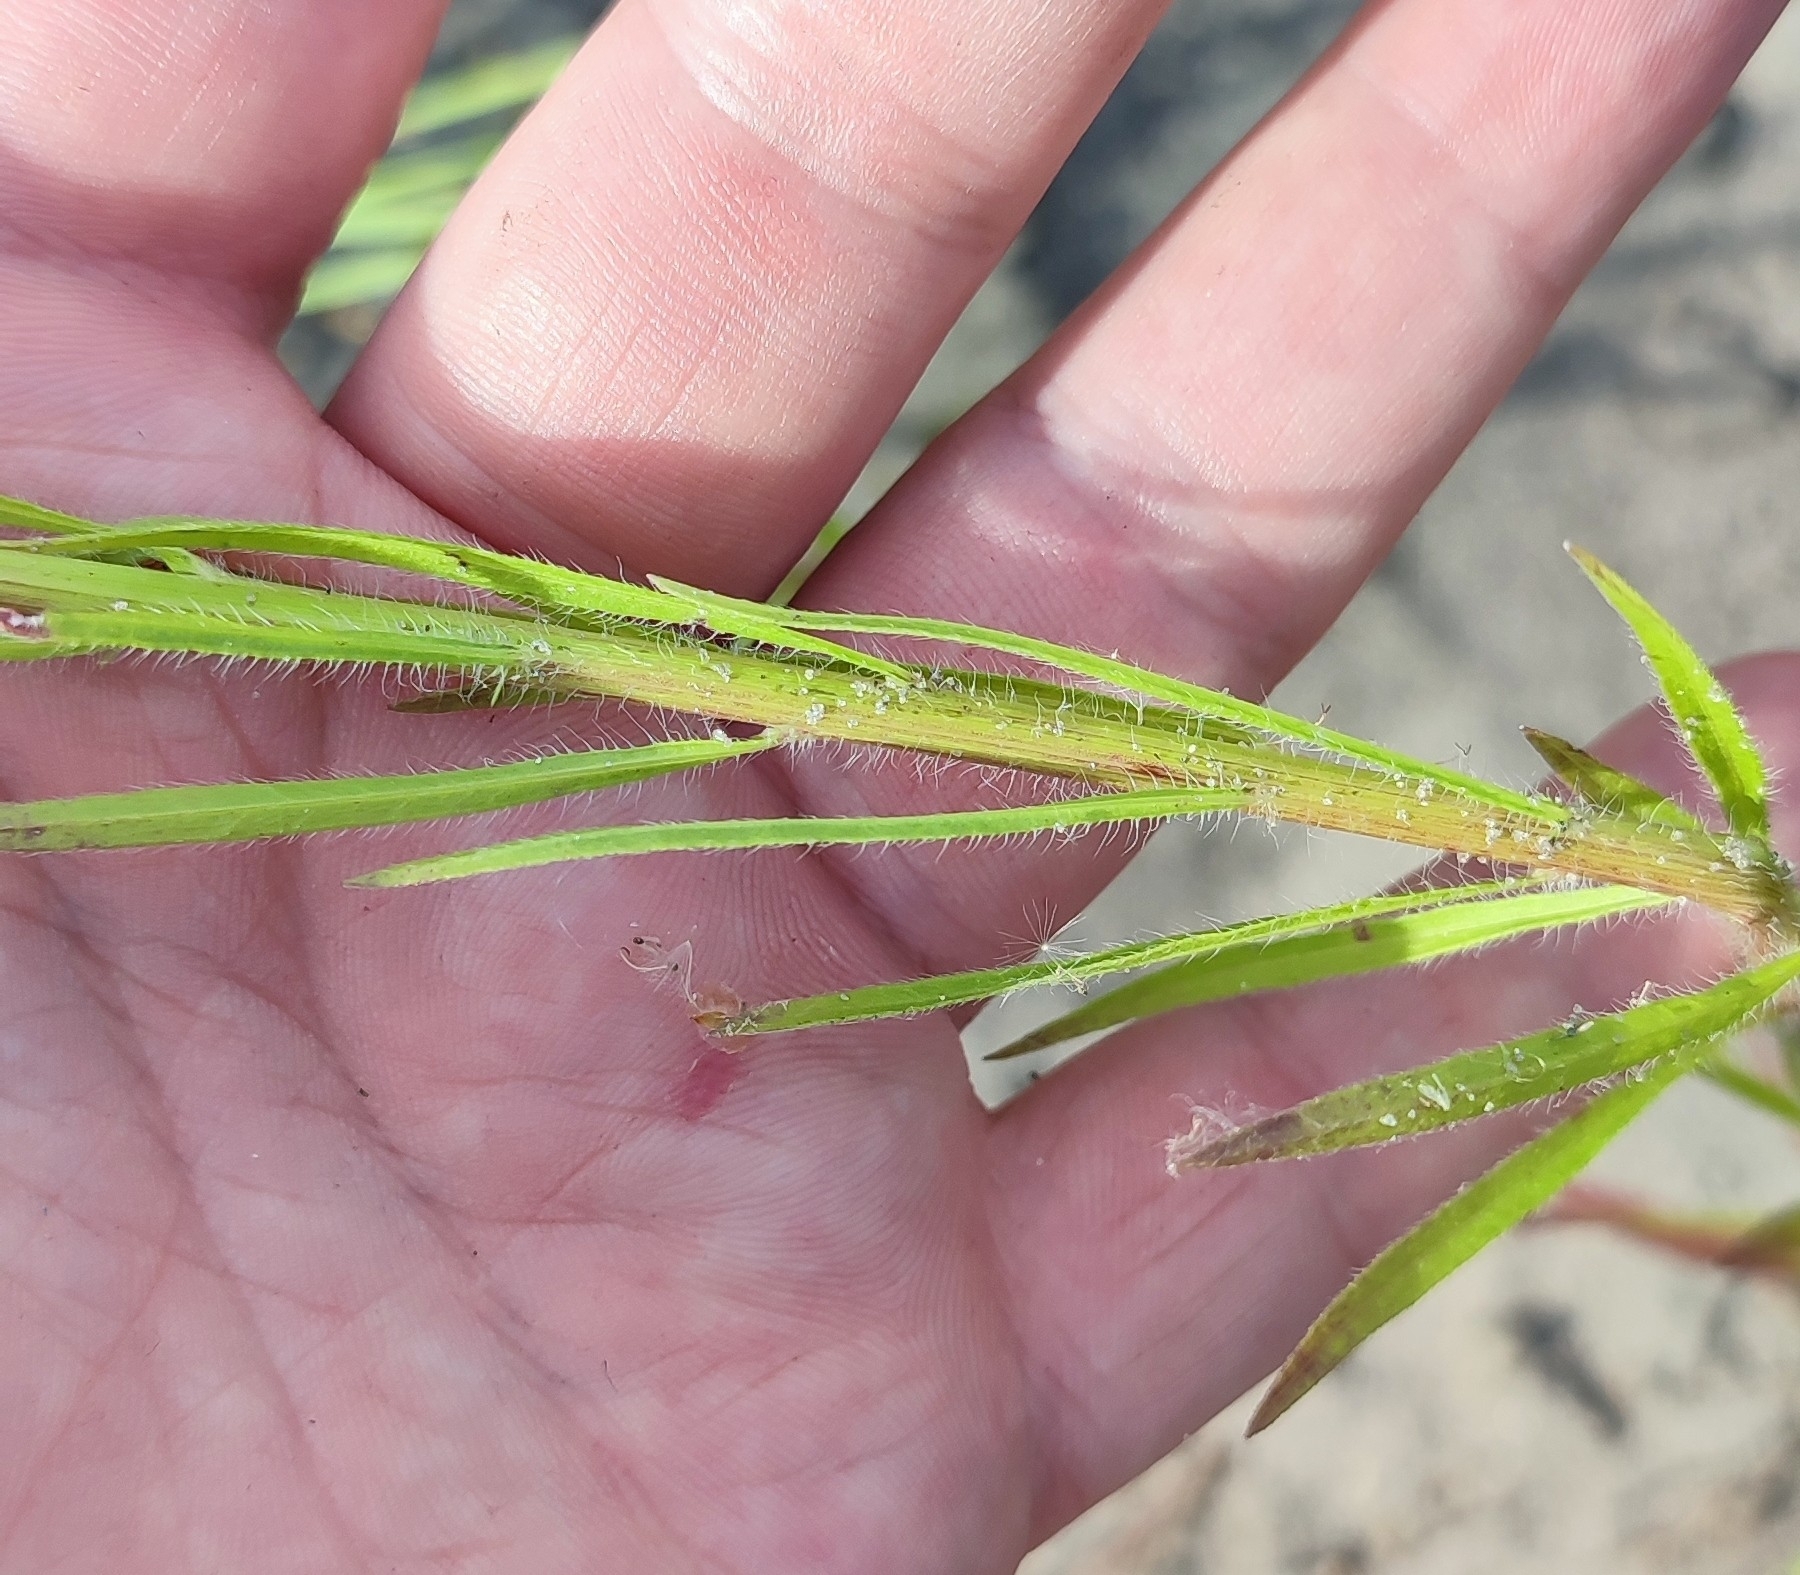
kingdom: Plantae
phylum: Tracheophyta
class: Magnoliopsida
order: Asterales
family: Asteraceae
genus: Erigeron
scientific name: Erigeron canadensis
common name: Canadian fleabane
